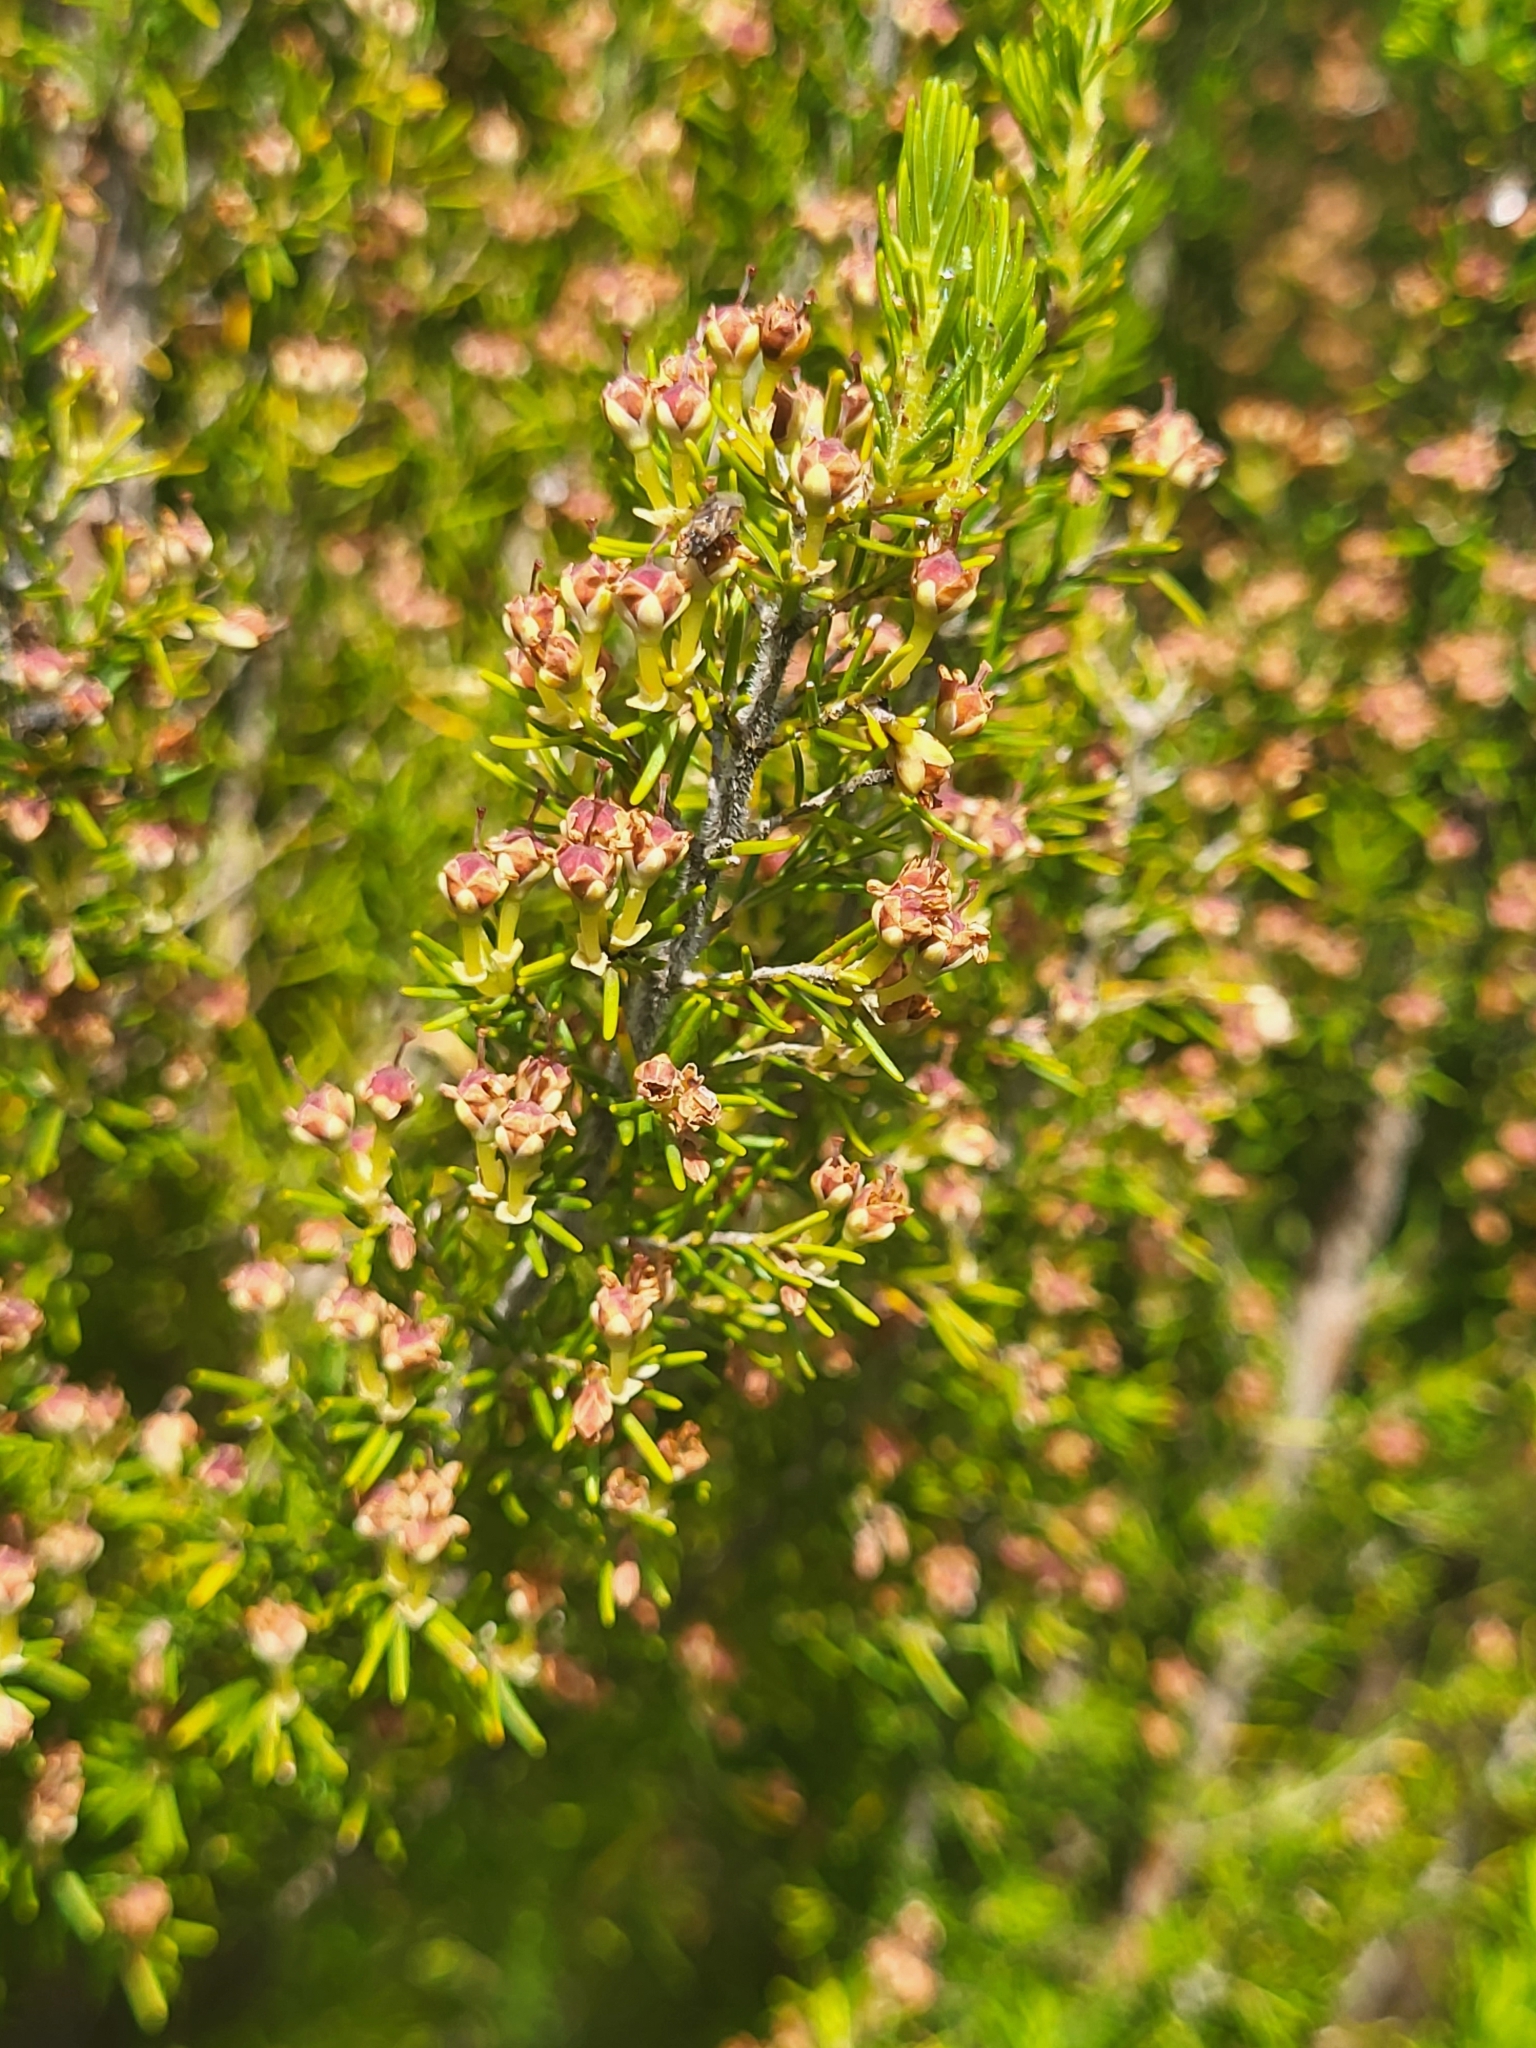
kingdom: Plantae
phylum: Tracheophyta
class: Magnoliopsida
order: Ericales
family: Ericaceae
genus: Erica
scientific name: Erica canariensis
